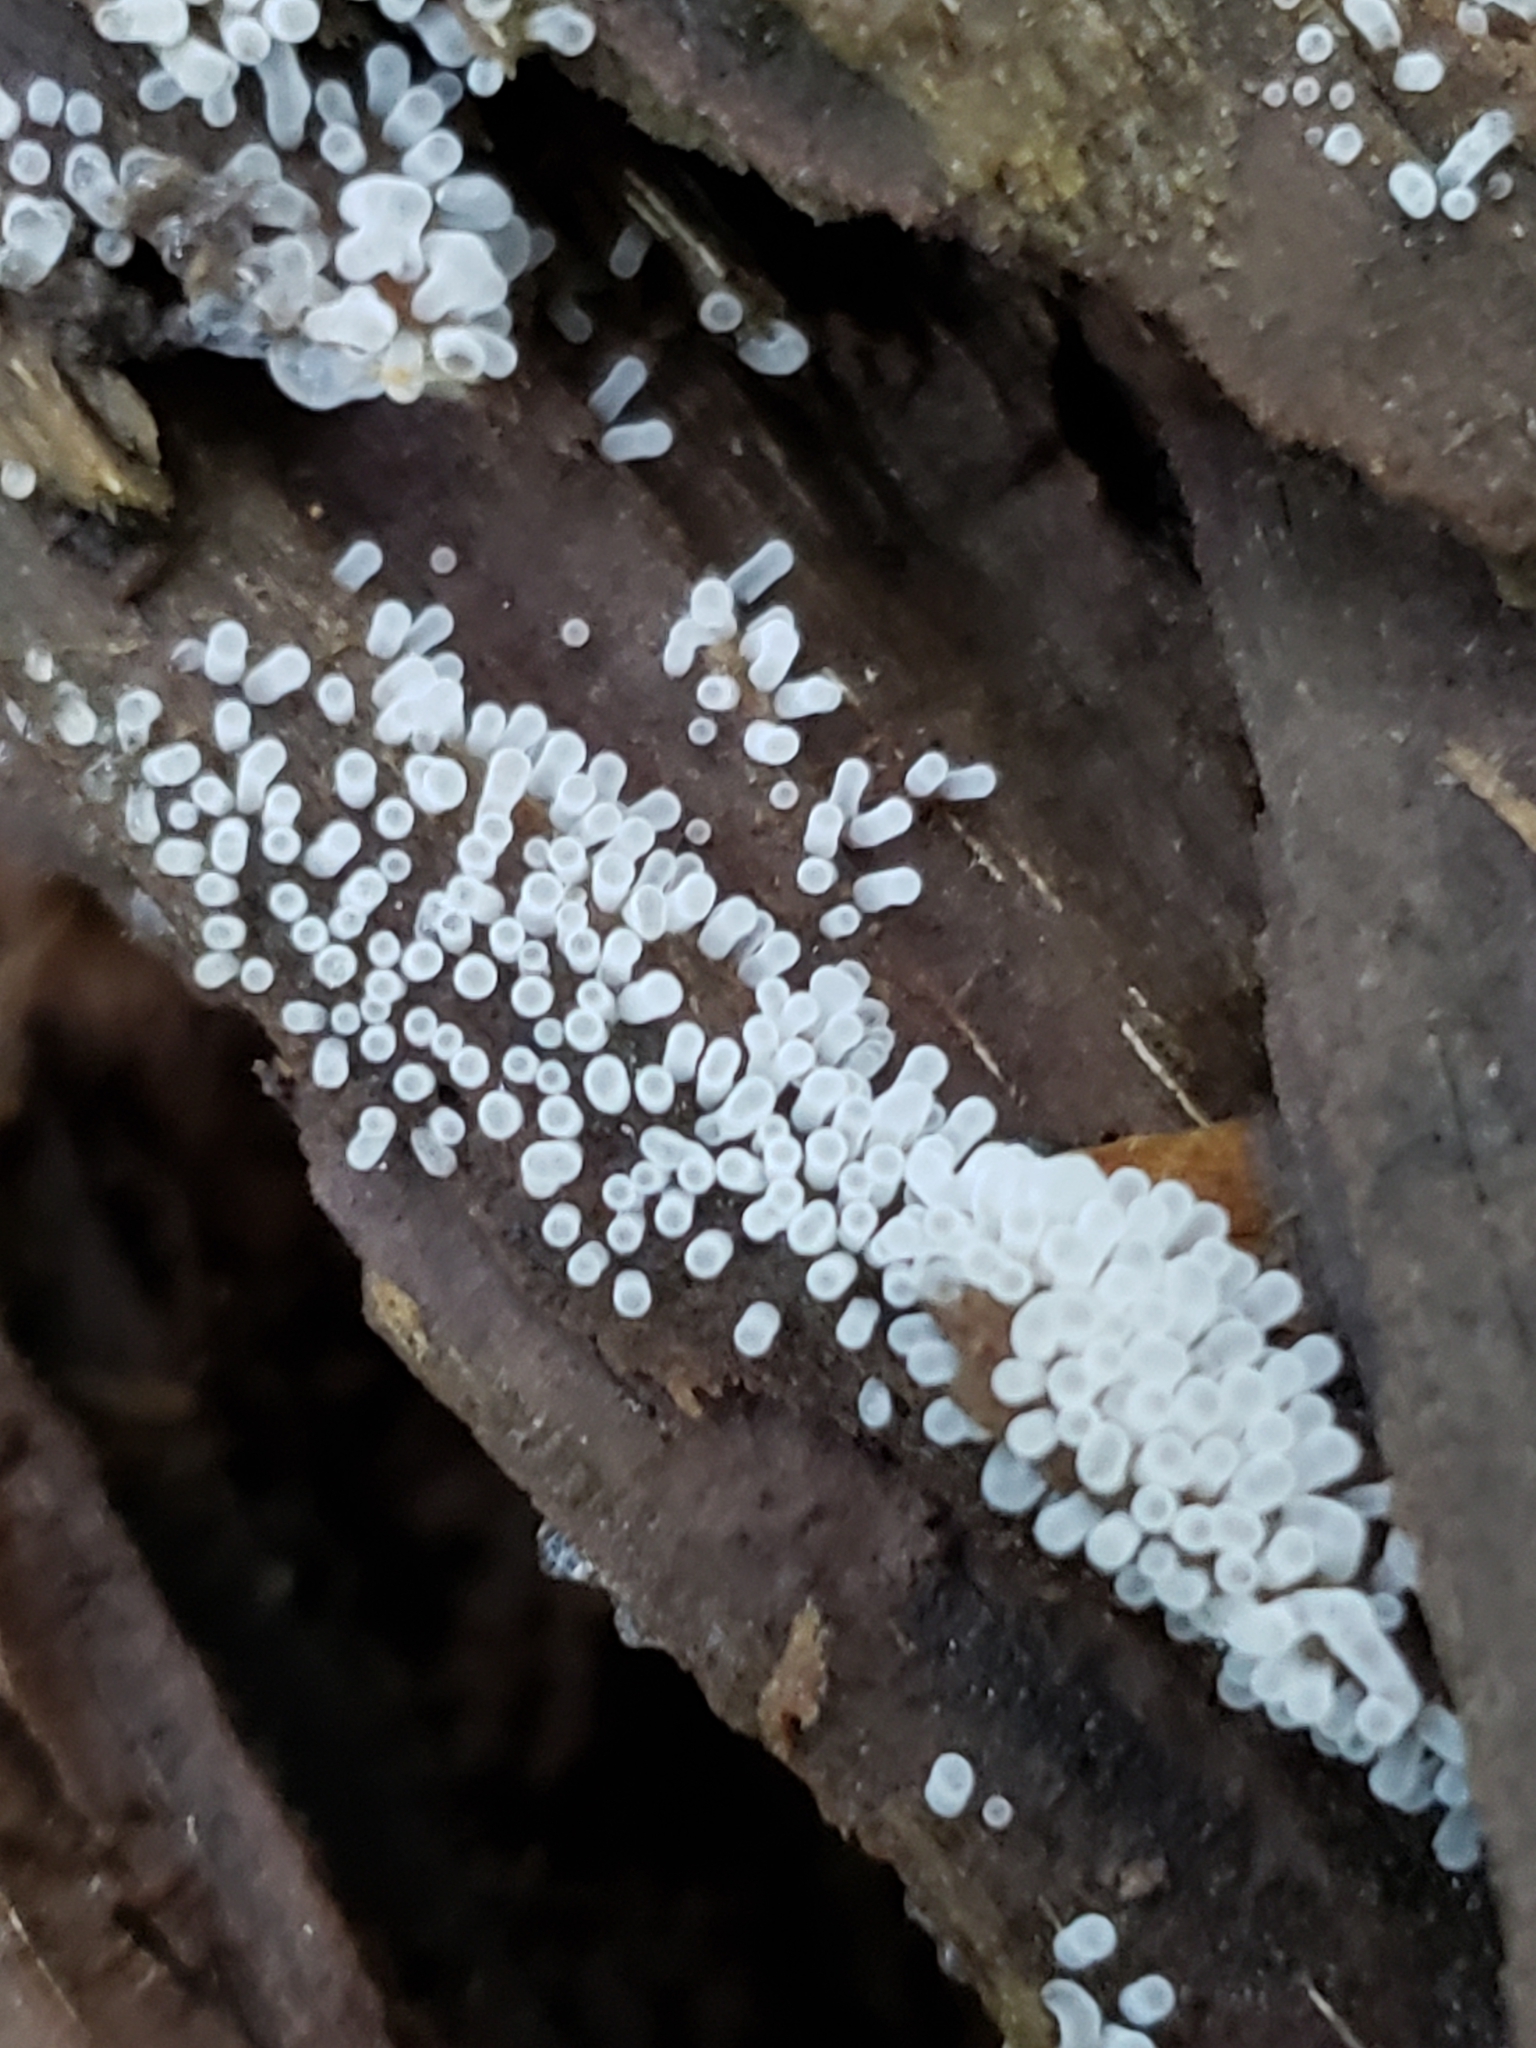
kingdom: Protozoa
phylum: Mycetozoa
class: Protosteliomycetes
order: Ceratiomyxales
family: Ceratiomyxaceae
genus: Ceratiomyxa
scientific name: Ceratiomyxa fruticulosa
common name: Honeycomb coral slime mold
